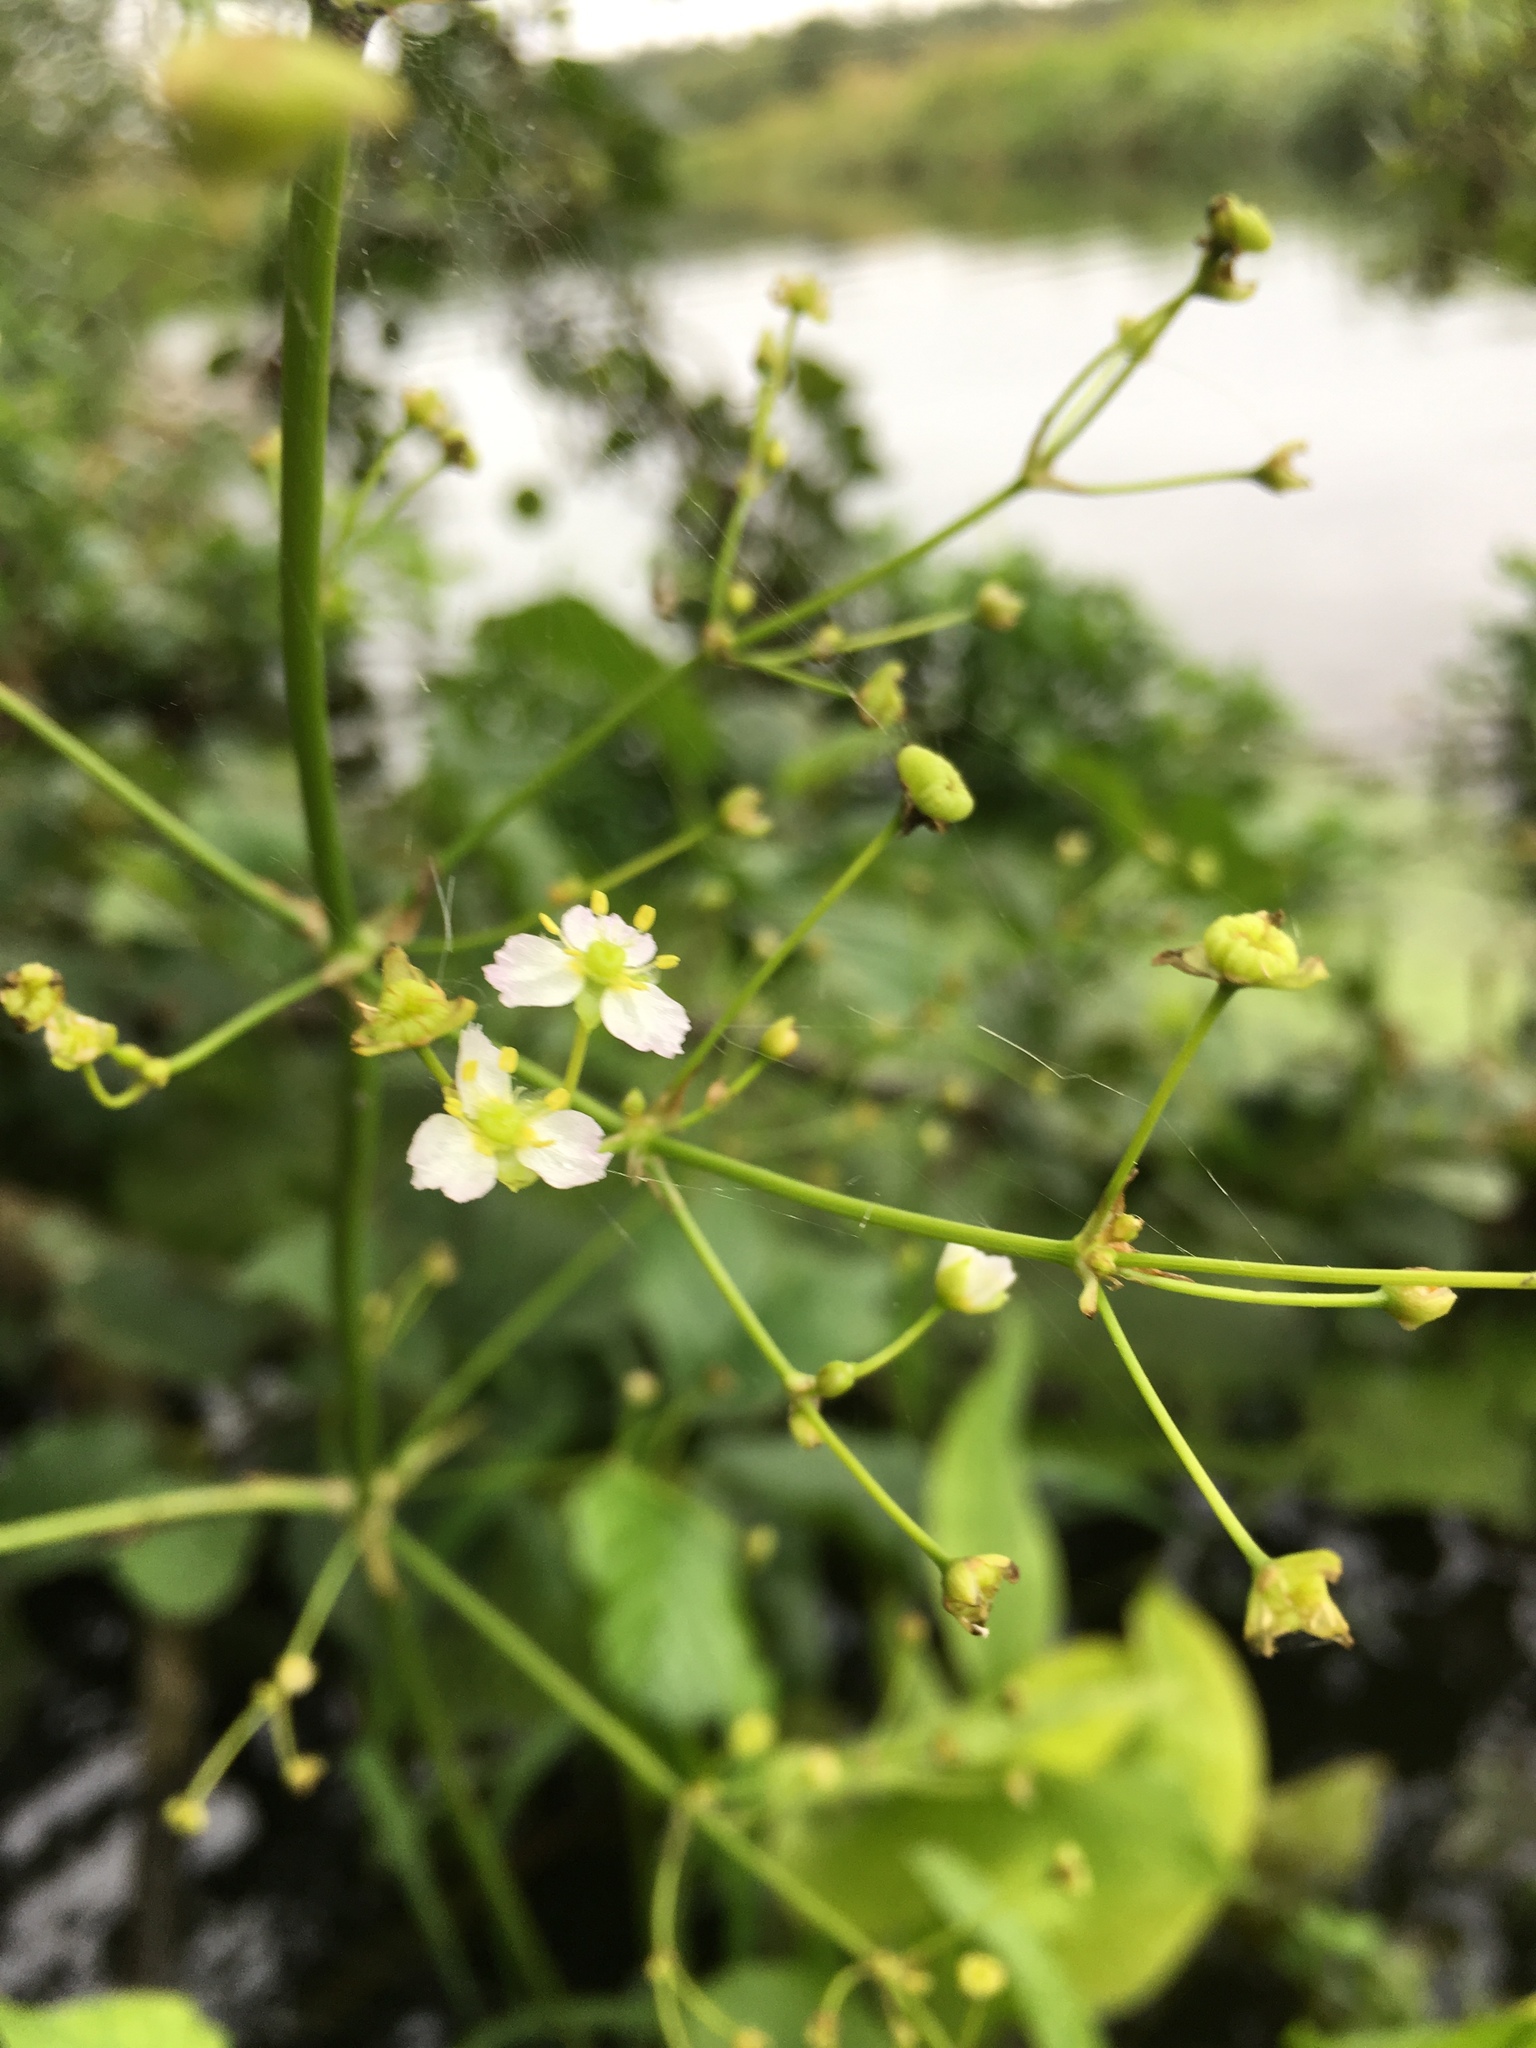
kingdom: Plantae
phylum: Tracheophyta
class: Liliopsida
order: Alismatales
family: Alismataceae
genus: Alisma
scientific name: Alisma plantago-aquatica
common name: Water-plantain
